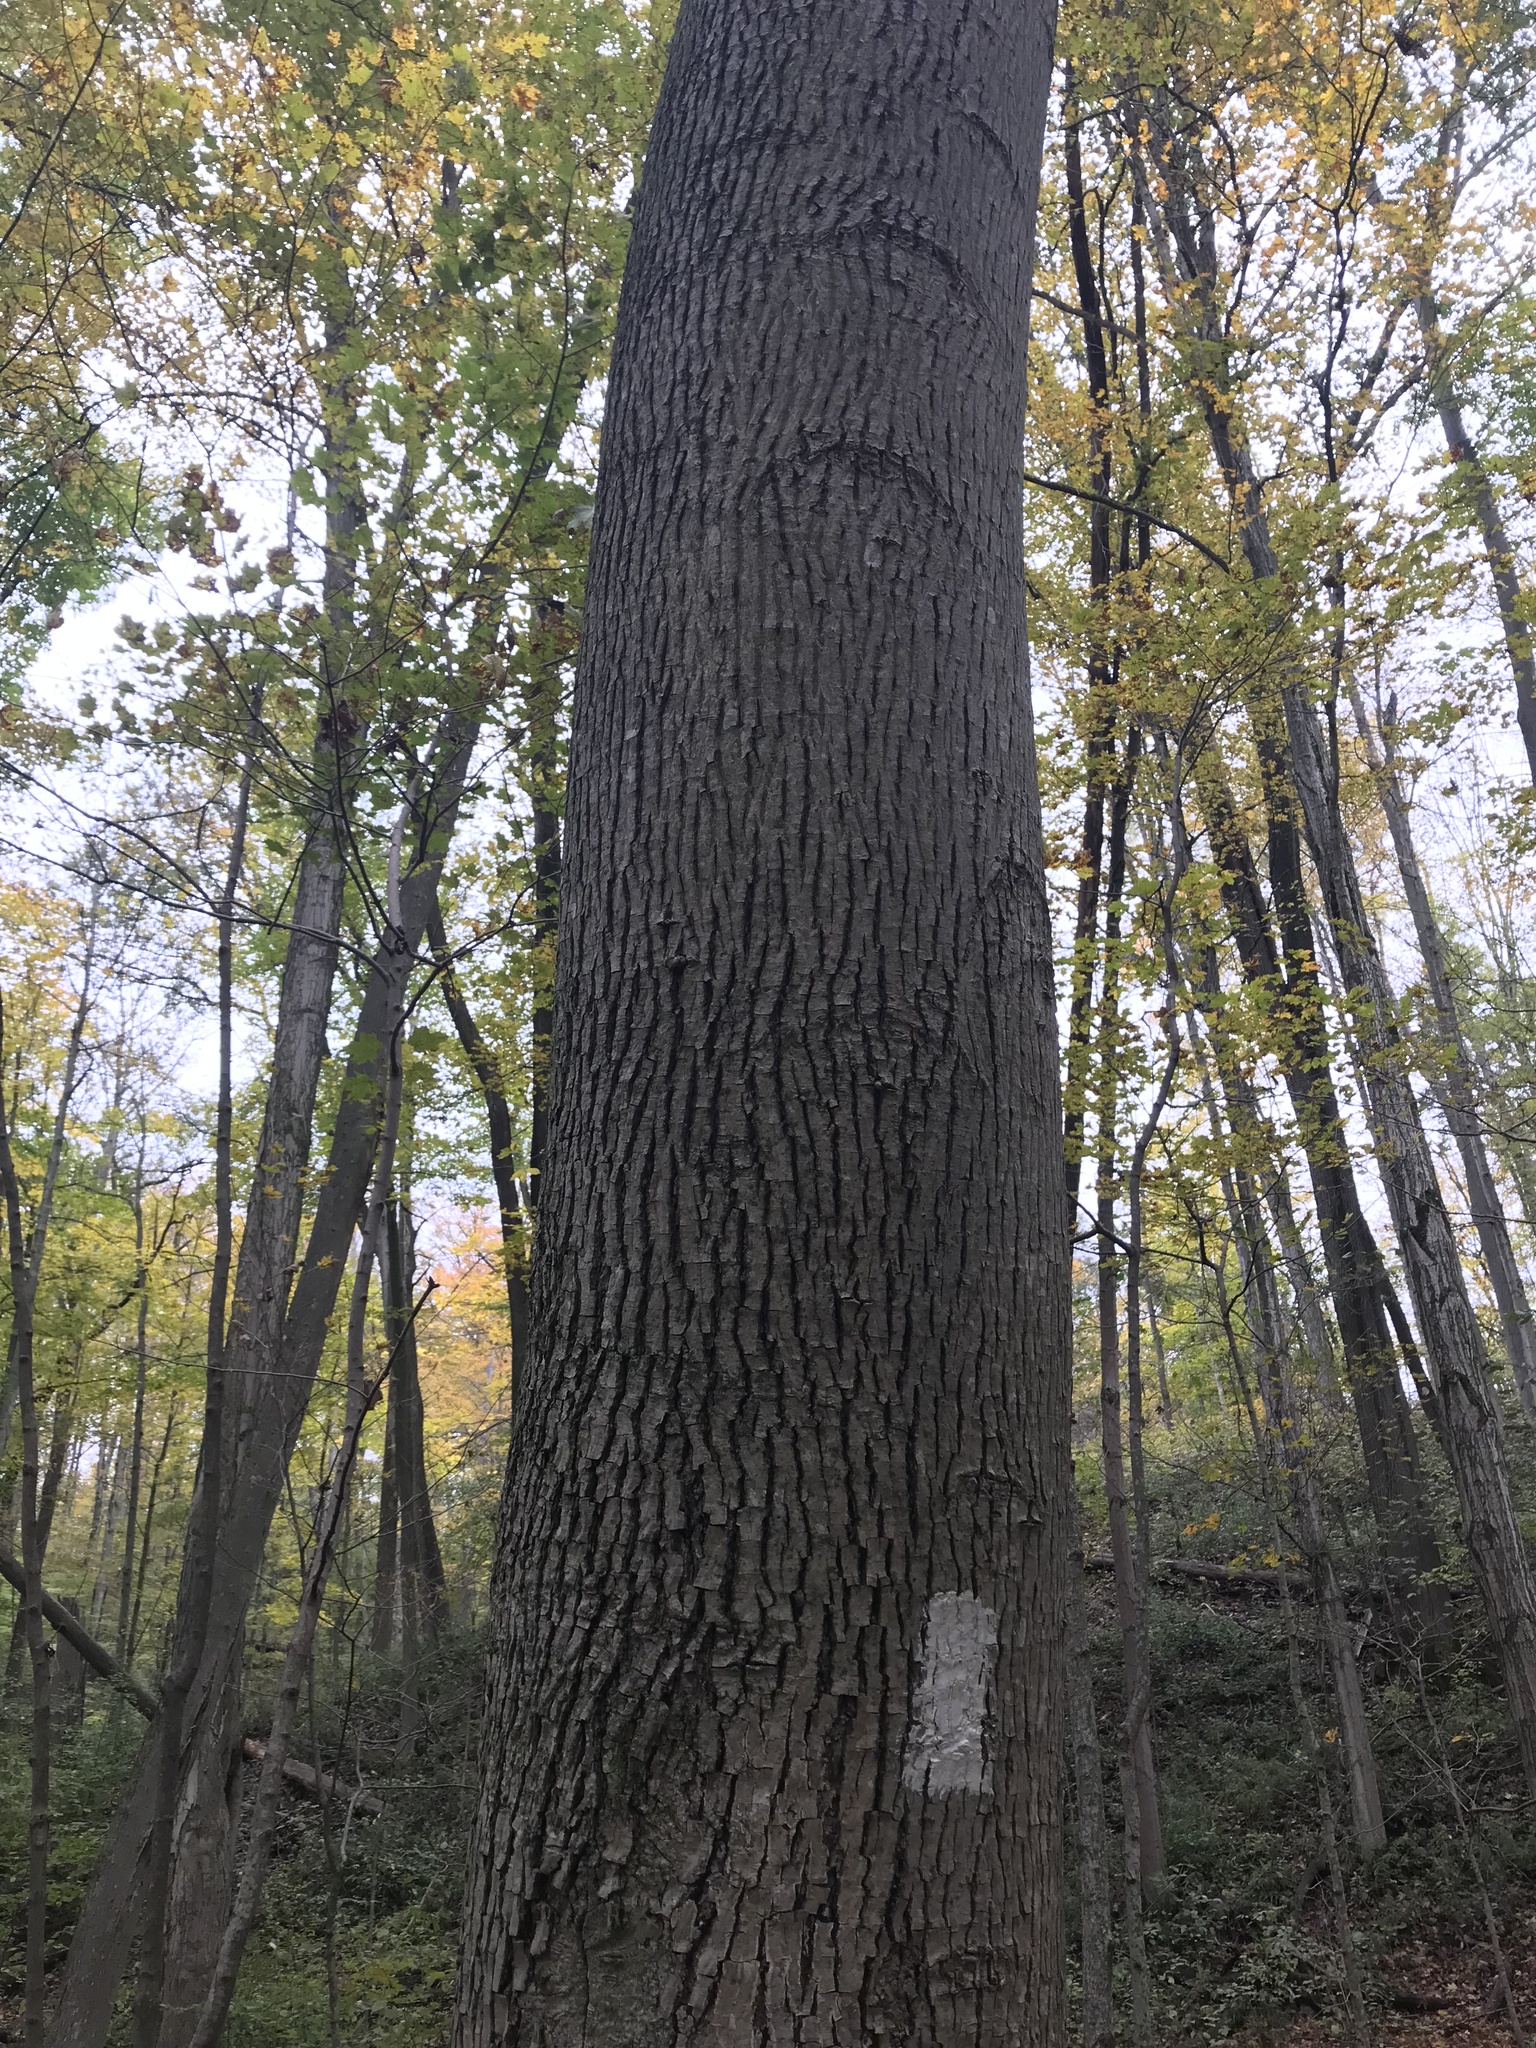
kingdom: Plantae
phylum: Tracheophyta
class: Magnoliopsida
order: Fagales
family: Juglandaceae
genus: Carya
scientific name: Carya cordiformis
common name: Bitternut hickory
